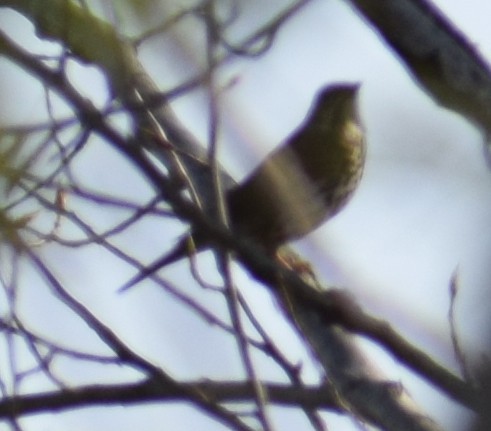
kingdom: Animalia
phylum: Chordata
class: Aves
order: Passeriformes
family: Turdidae
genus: Turdus
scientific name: Turdus philomelos
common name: Song thrush
